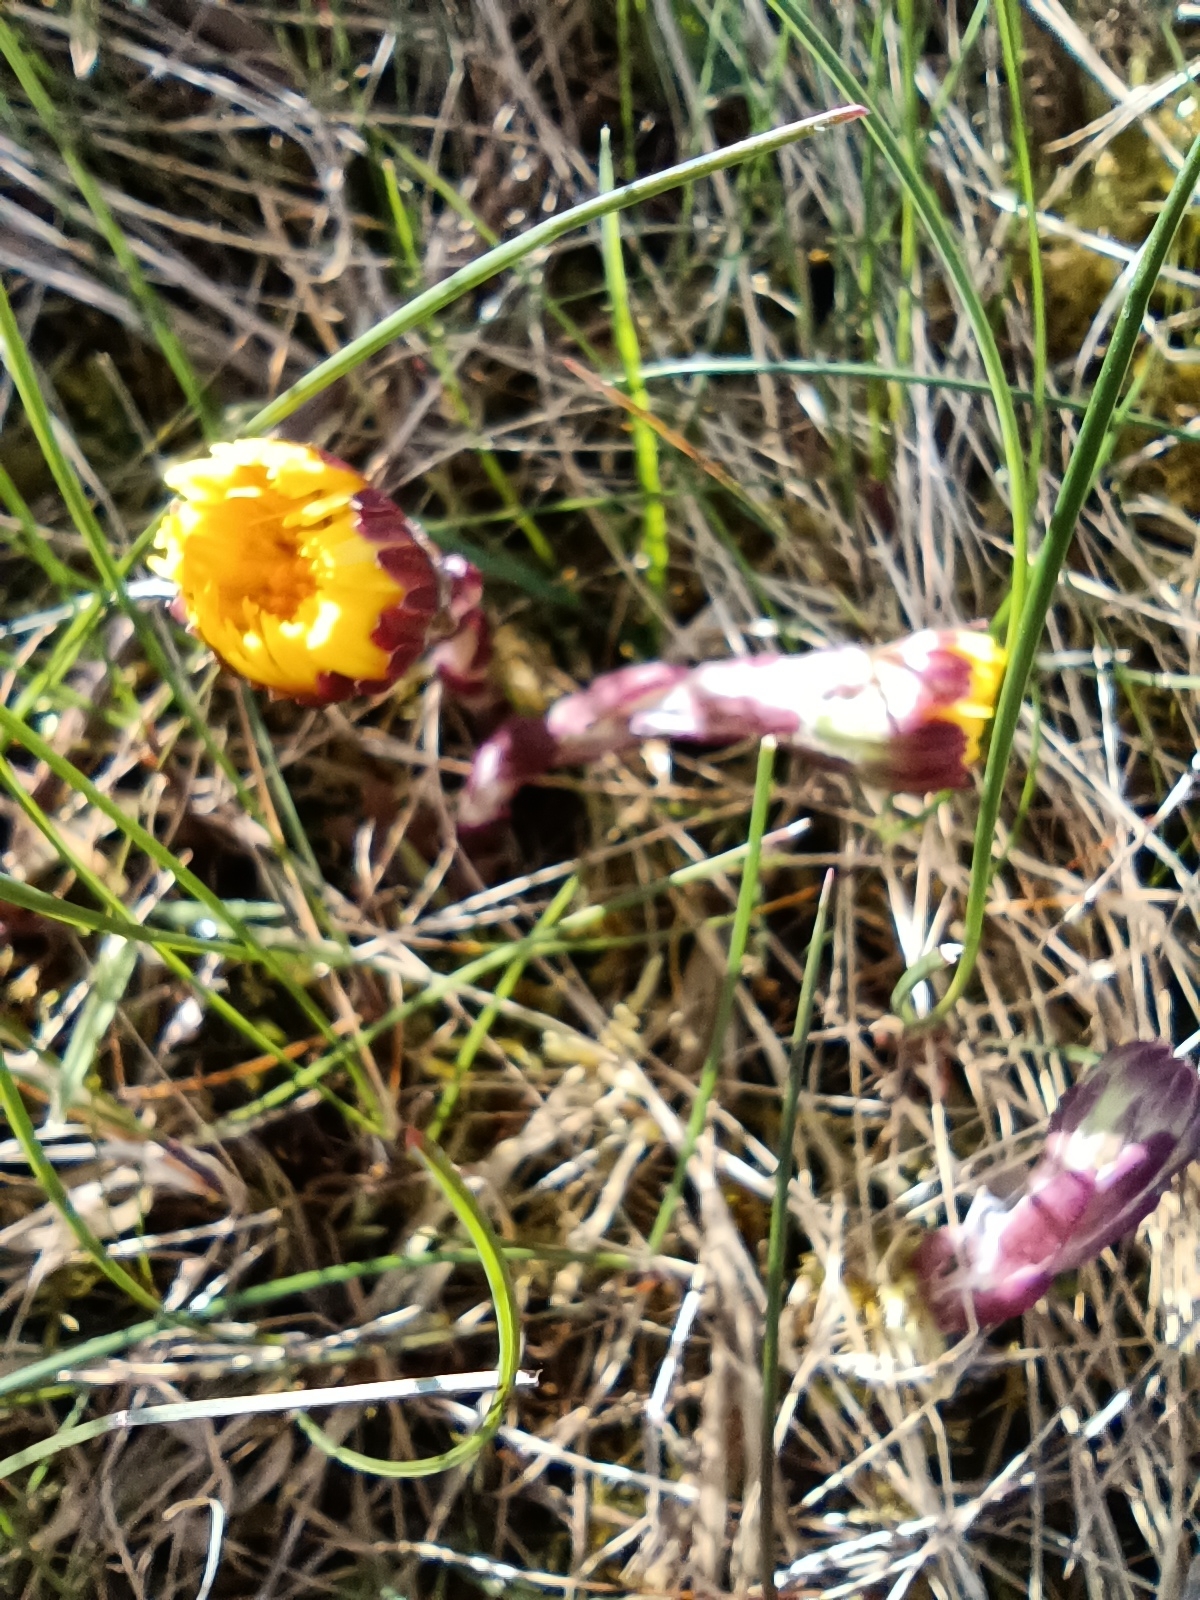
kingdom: Plantae
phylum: Tracheophyta
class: Magnoliopsida
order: Asterales
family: Asteraceae
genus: Tussilago
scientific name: Tussilago farfara
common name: Coltsfoot
